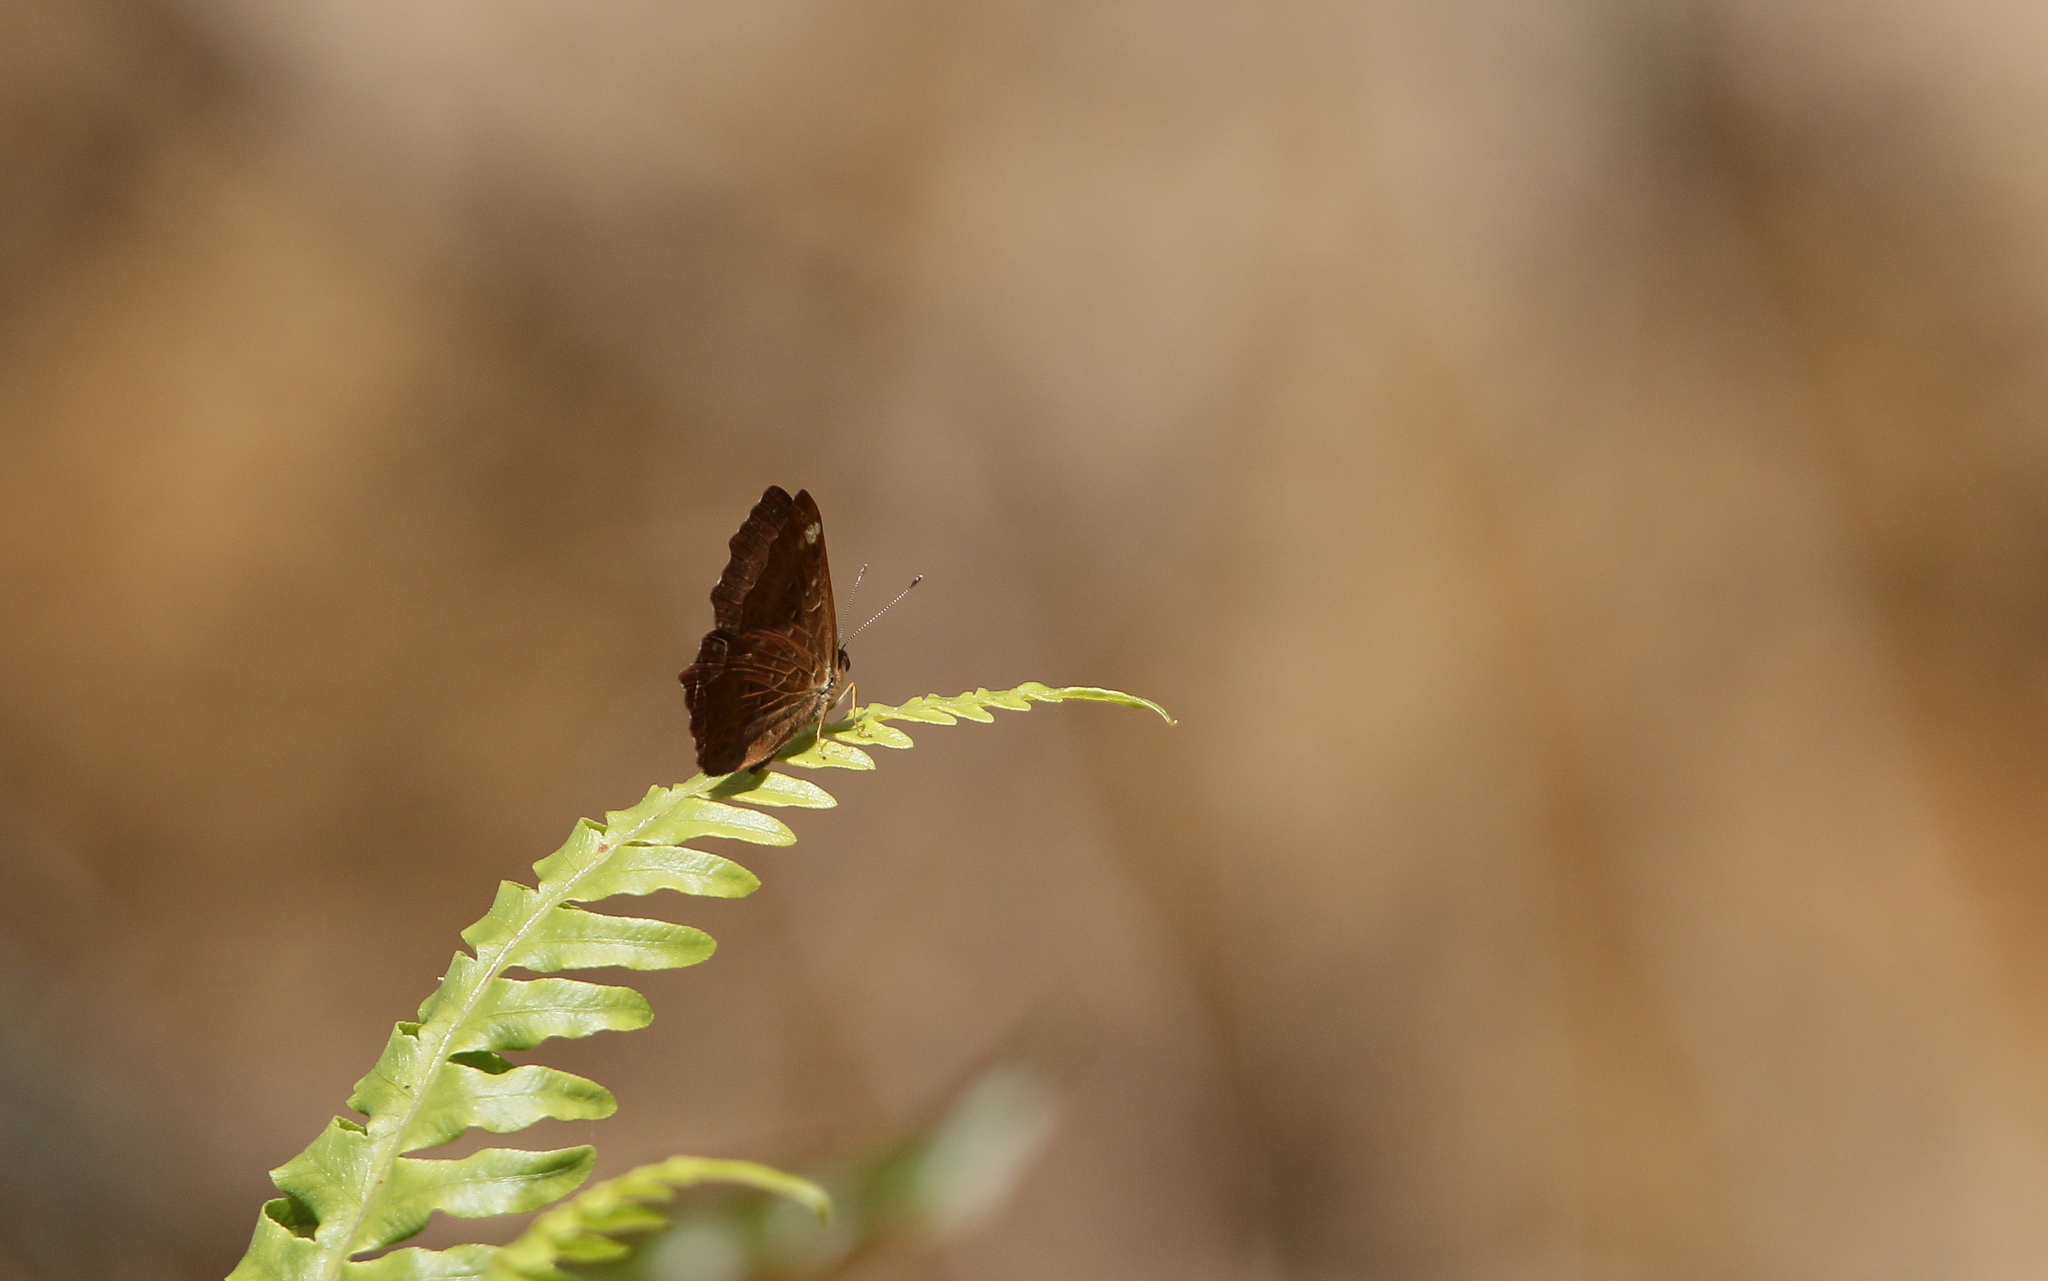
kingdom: Animalia
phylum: Arthropoda
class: Insecta
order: Lepidoptera
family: Riodinidae
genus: Zemeros
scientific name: Zemeros flegyas
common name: Punchinello
